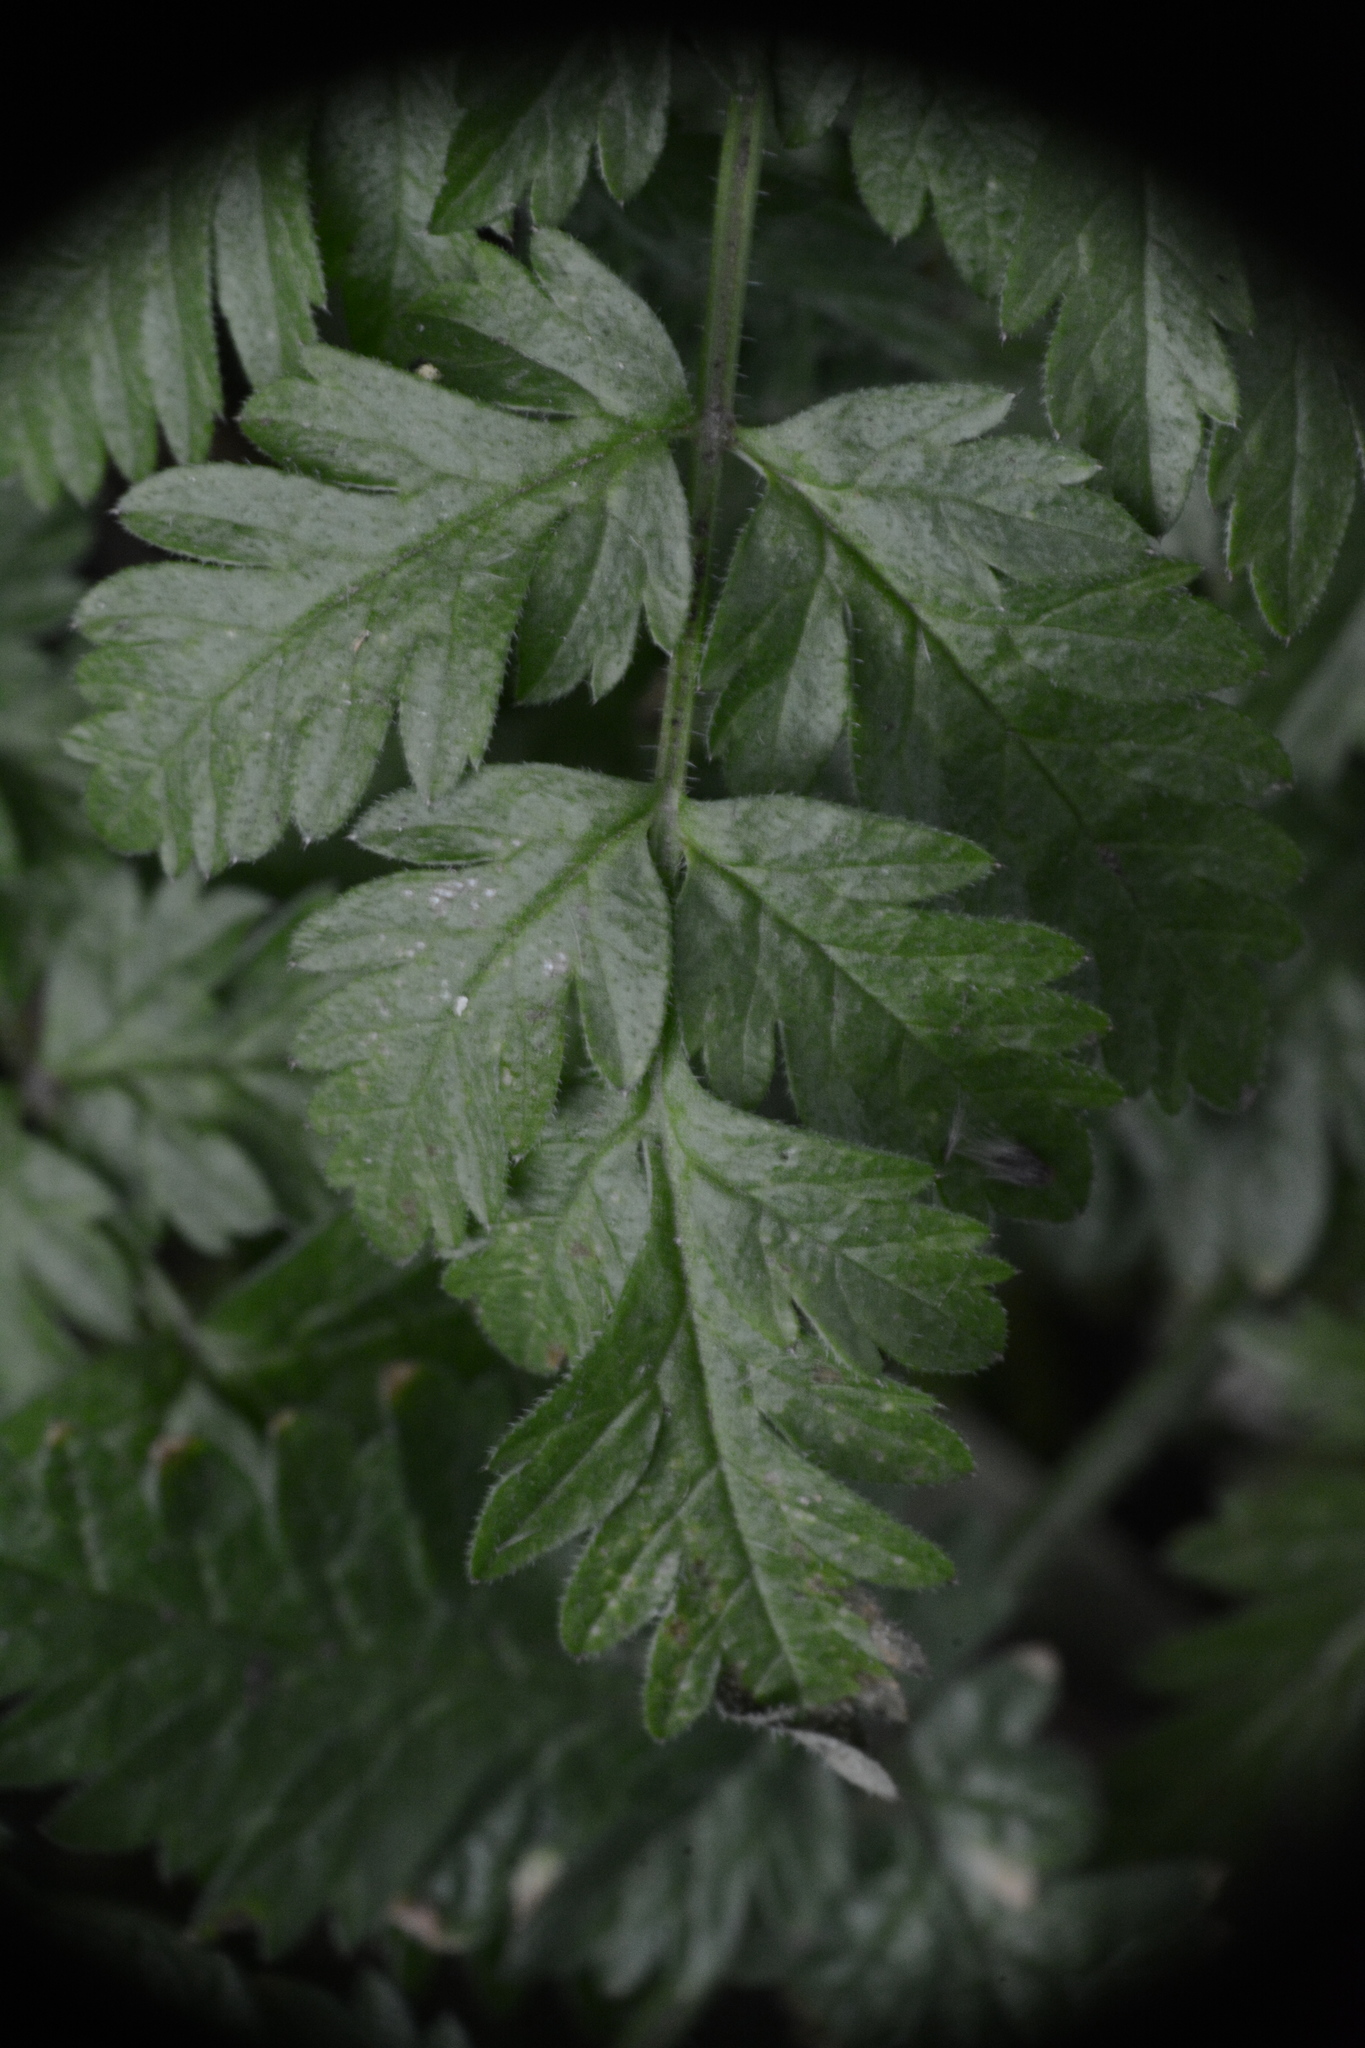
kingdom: Plantae
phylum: Tracheophyta
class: Magnoliopsida
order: Apiales
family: Apiaceae
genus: Anthriscus
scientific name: Anthriscus sylvestris
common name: Cow parsley
